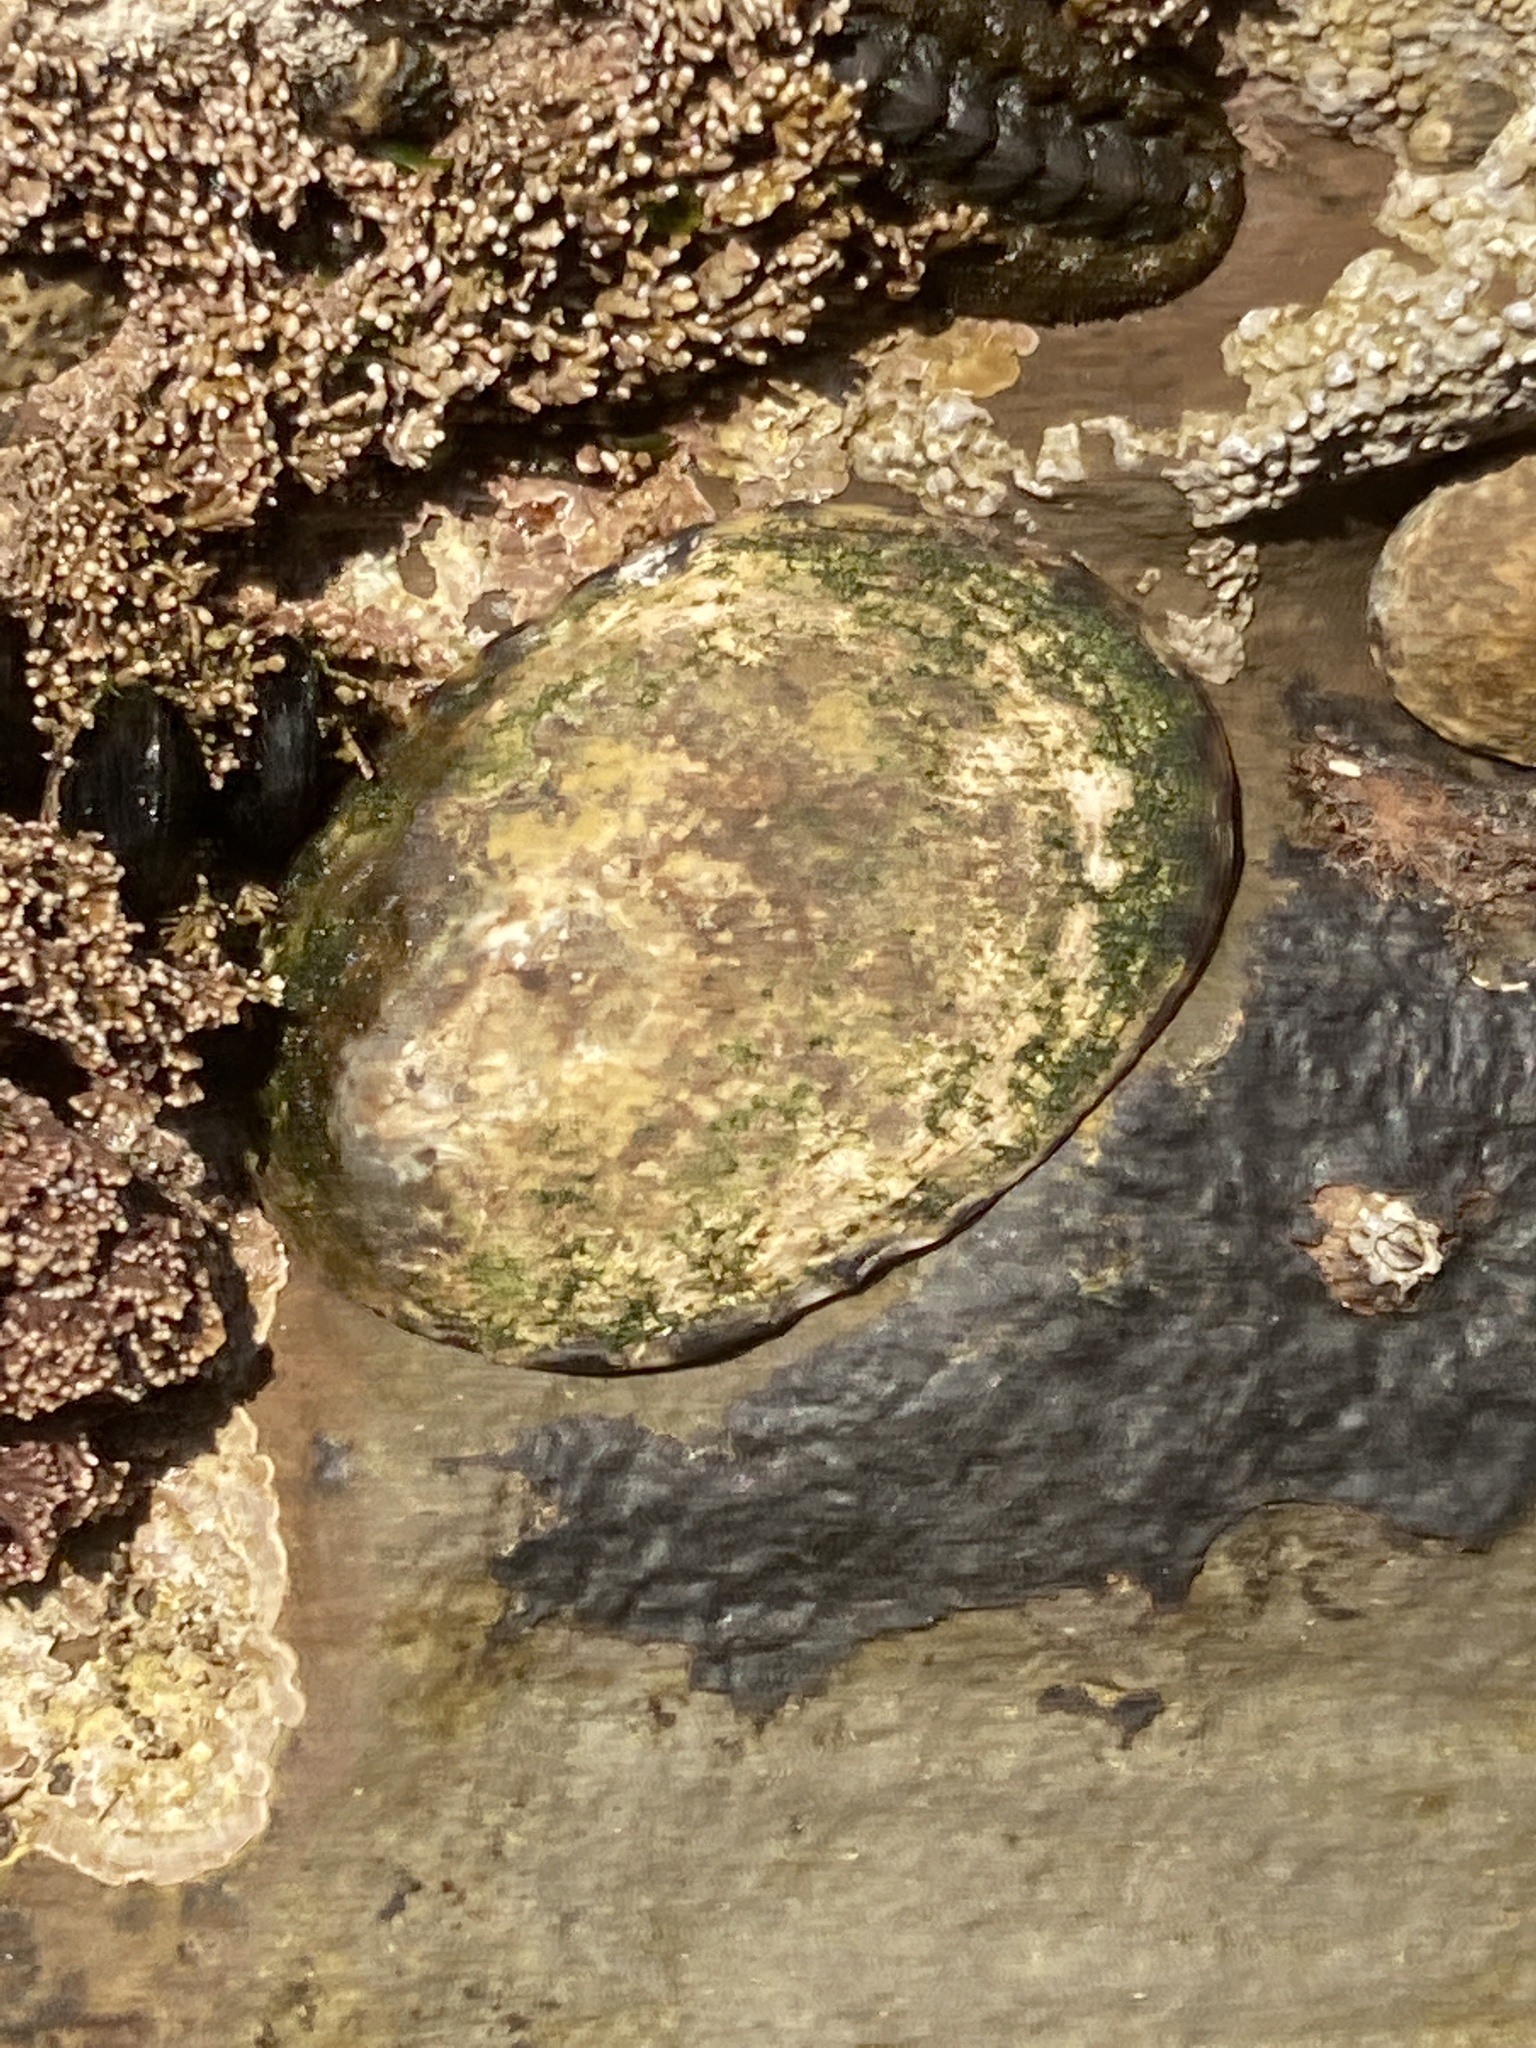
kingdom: Animalia
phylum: Mollusca
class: Gastropoda
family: Lottiidae
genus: Lottia
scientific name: Lottia gigantea
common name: Owl limpet
